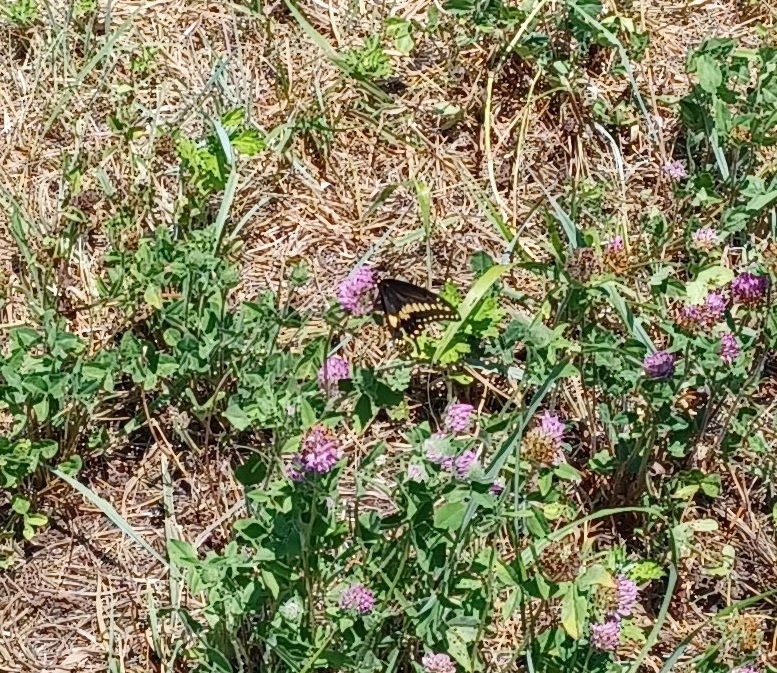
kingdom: Animalia
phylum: Arthropoda
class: Insecta
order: Lepidoptera
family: Papilionidae
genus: Papilio
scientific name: Papilio polyxenes
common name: Black swallowtail
